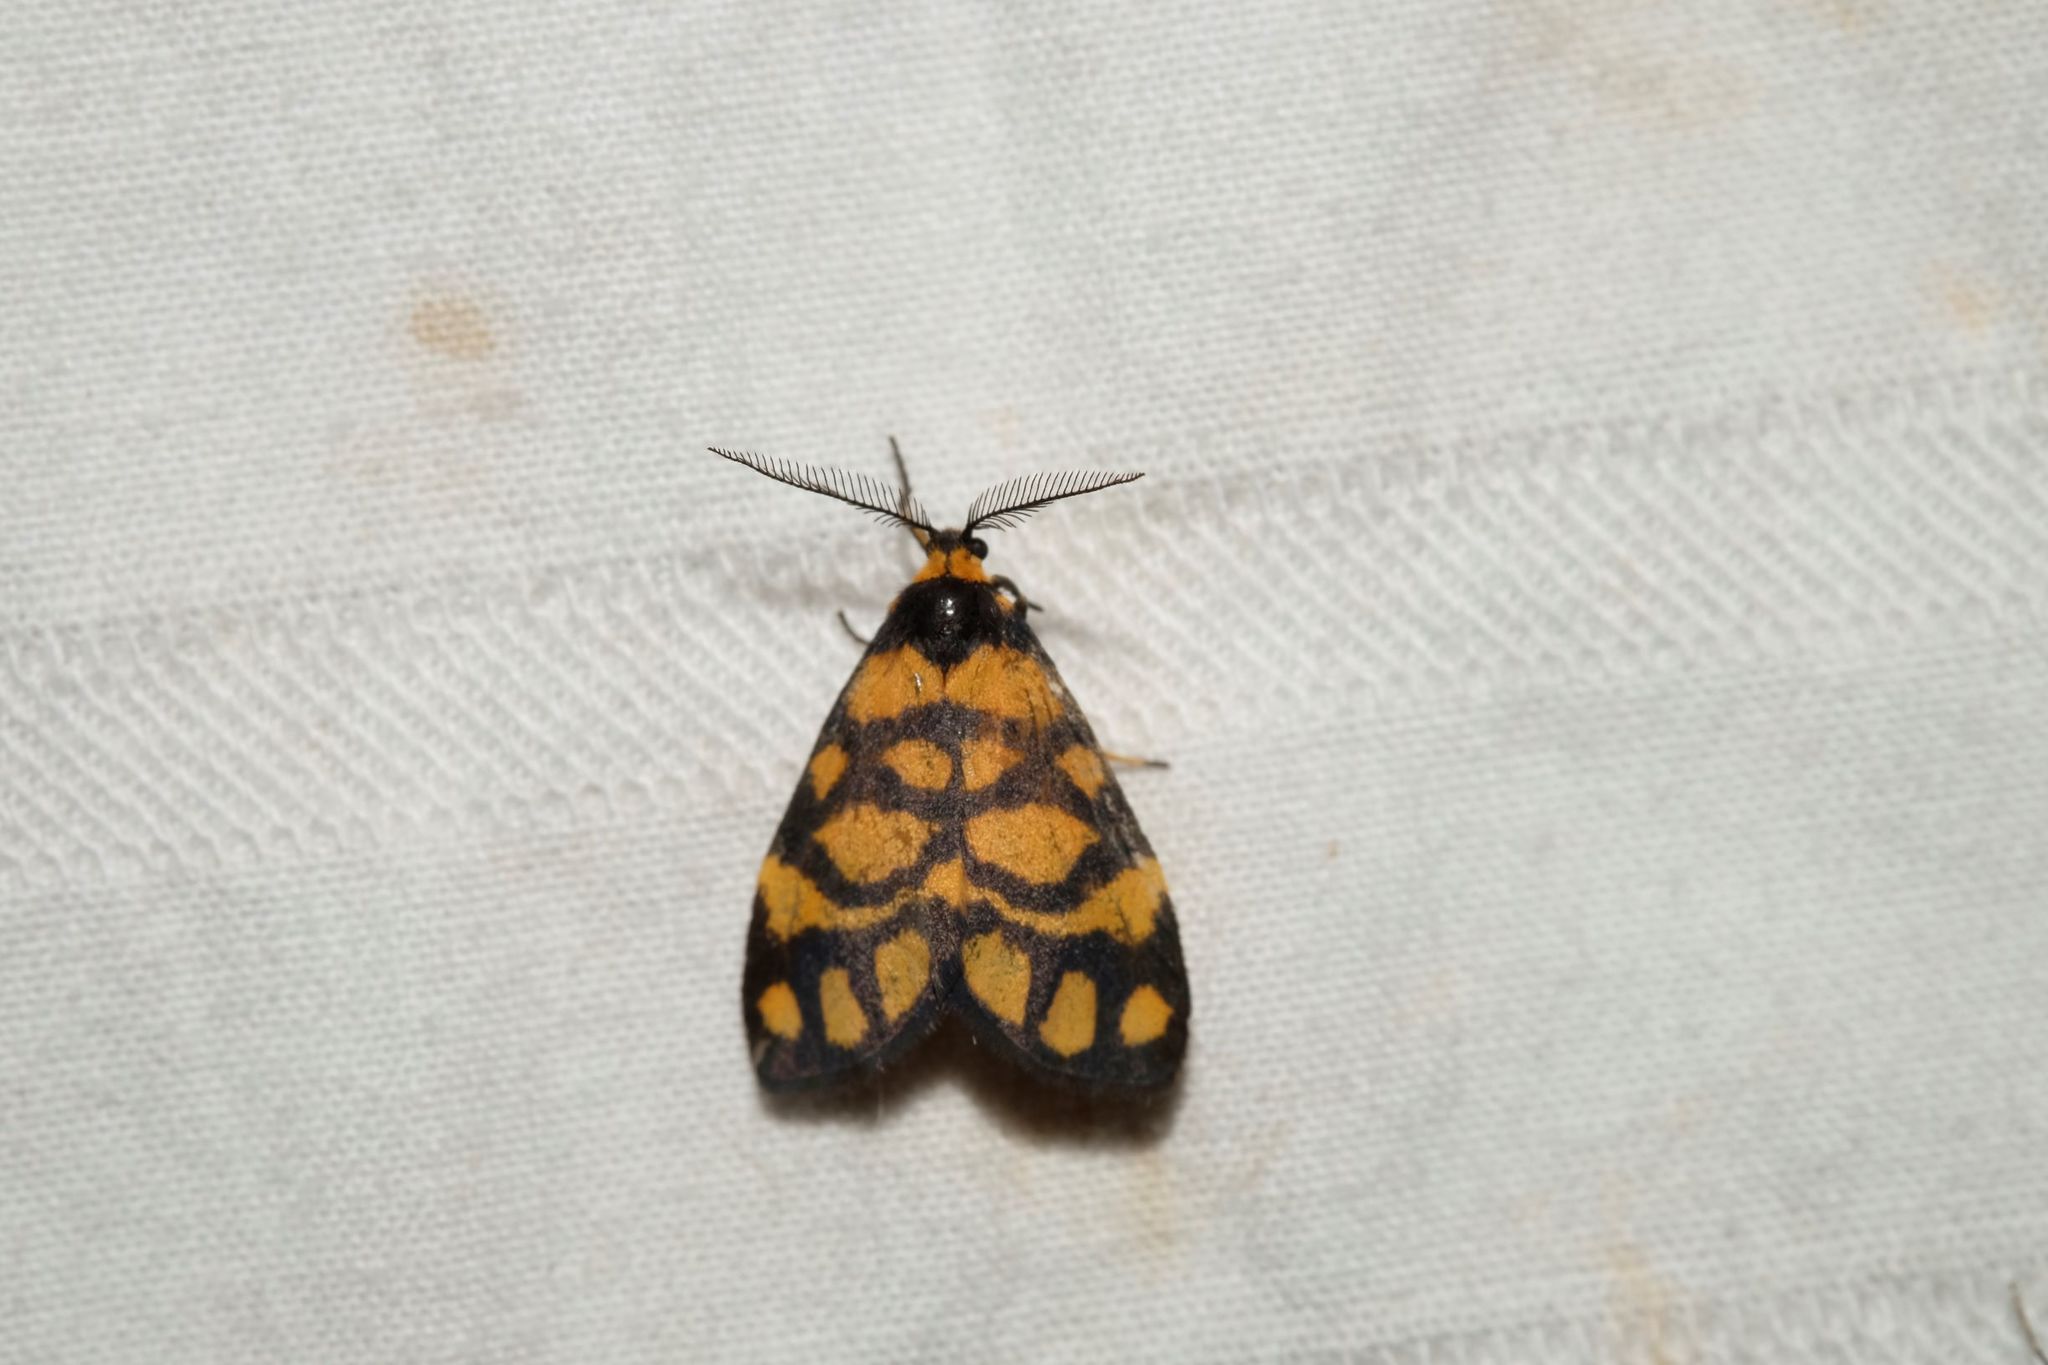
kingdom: Animalia
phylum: Arthropoda
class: Insecta
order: Lepidoptera
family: Erebidae
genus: Asura
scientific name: Asura lydia
